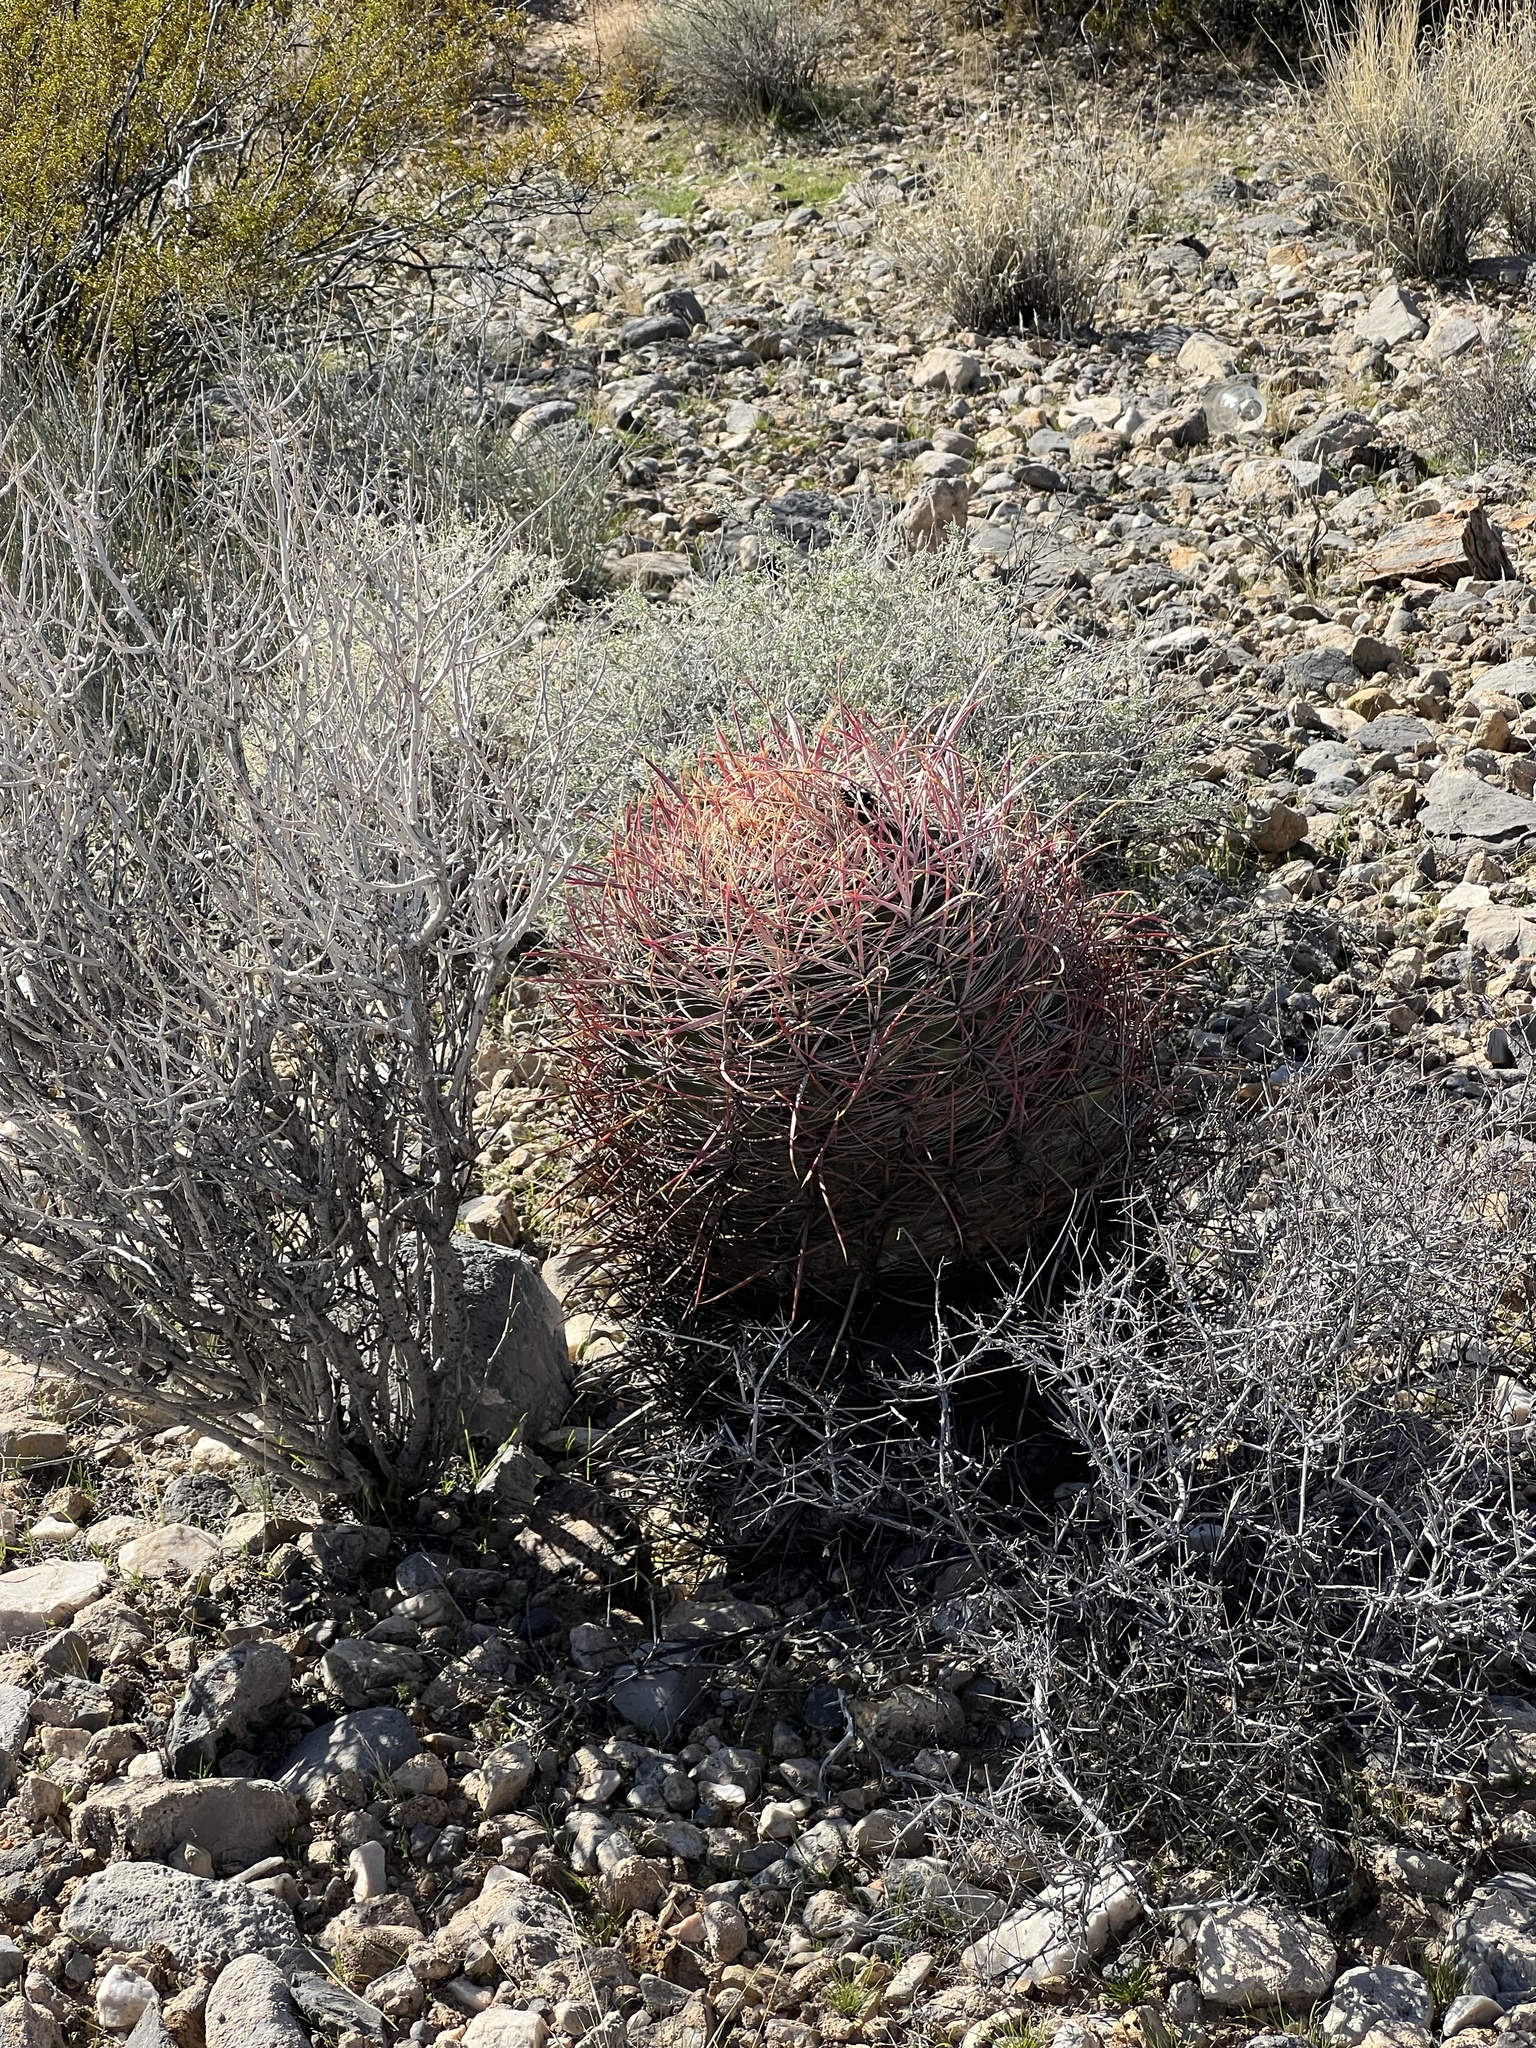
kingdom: Plantae
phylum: Tracheophyta
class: Magnoliopsida
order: Caryophyllales
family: Cactaceae
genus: Ferocactus
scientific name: Ferocactus cylindraceus
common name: California barrel cactus
